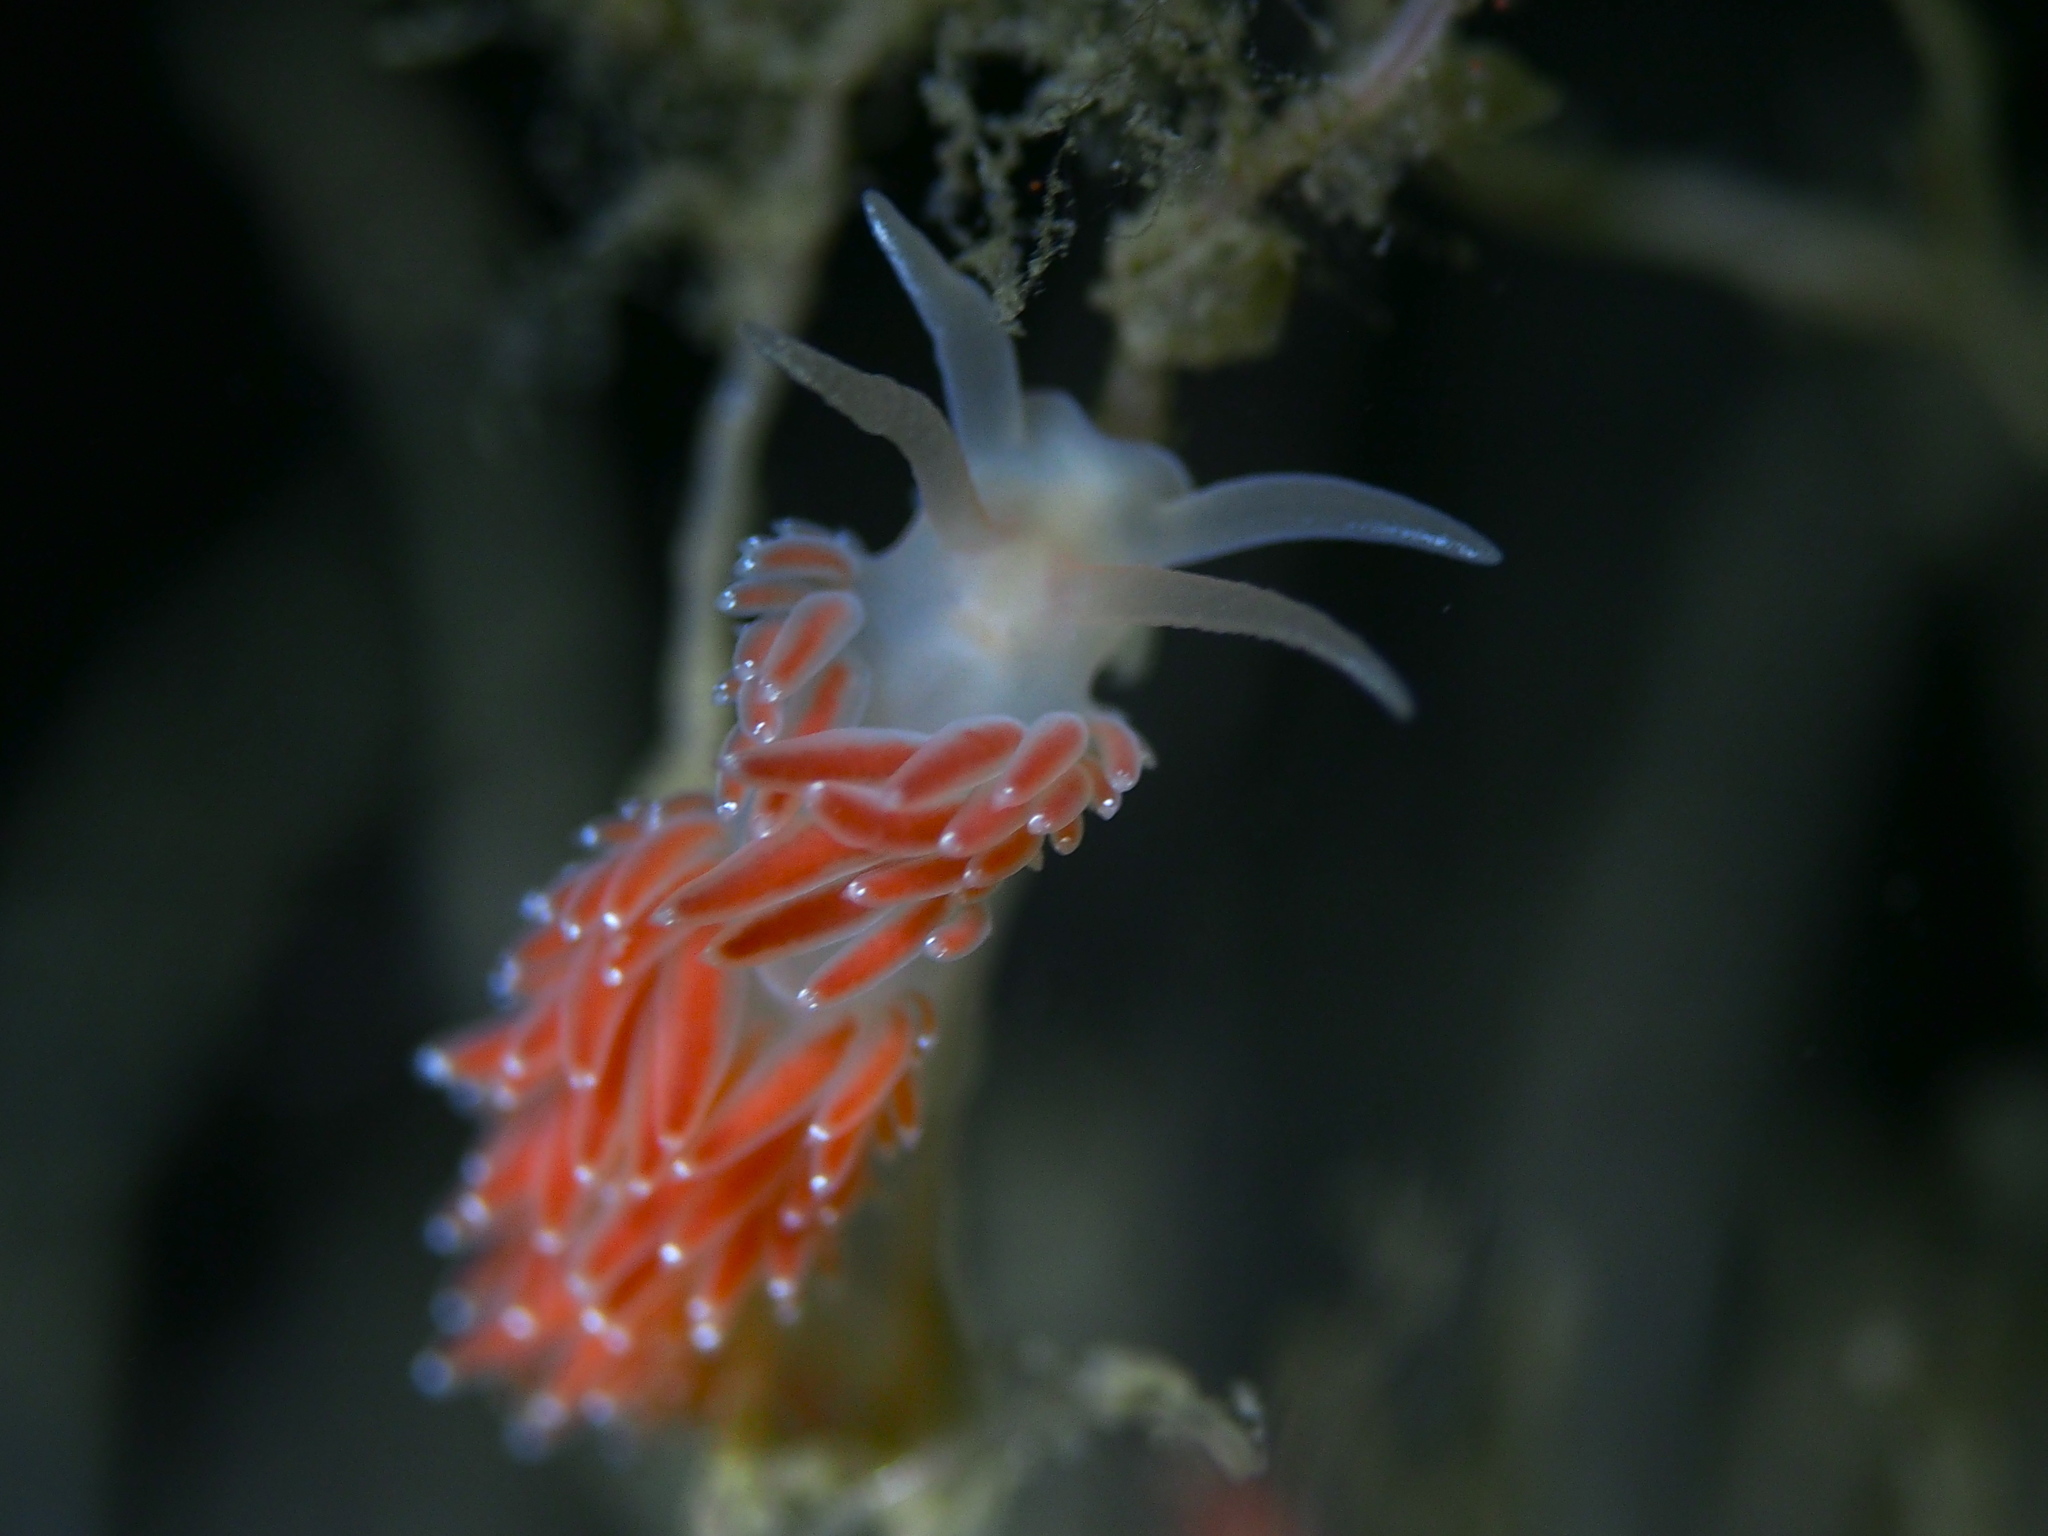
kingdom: Animalia
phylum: Mollusca
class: Gastropoda
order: Nudibranchia
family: Coryphellidae
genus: Coryphella
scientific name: Coryphella verrucosa
